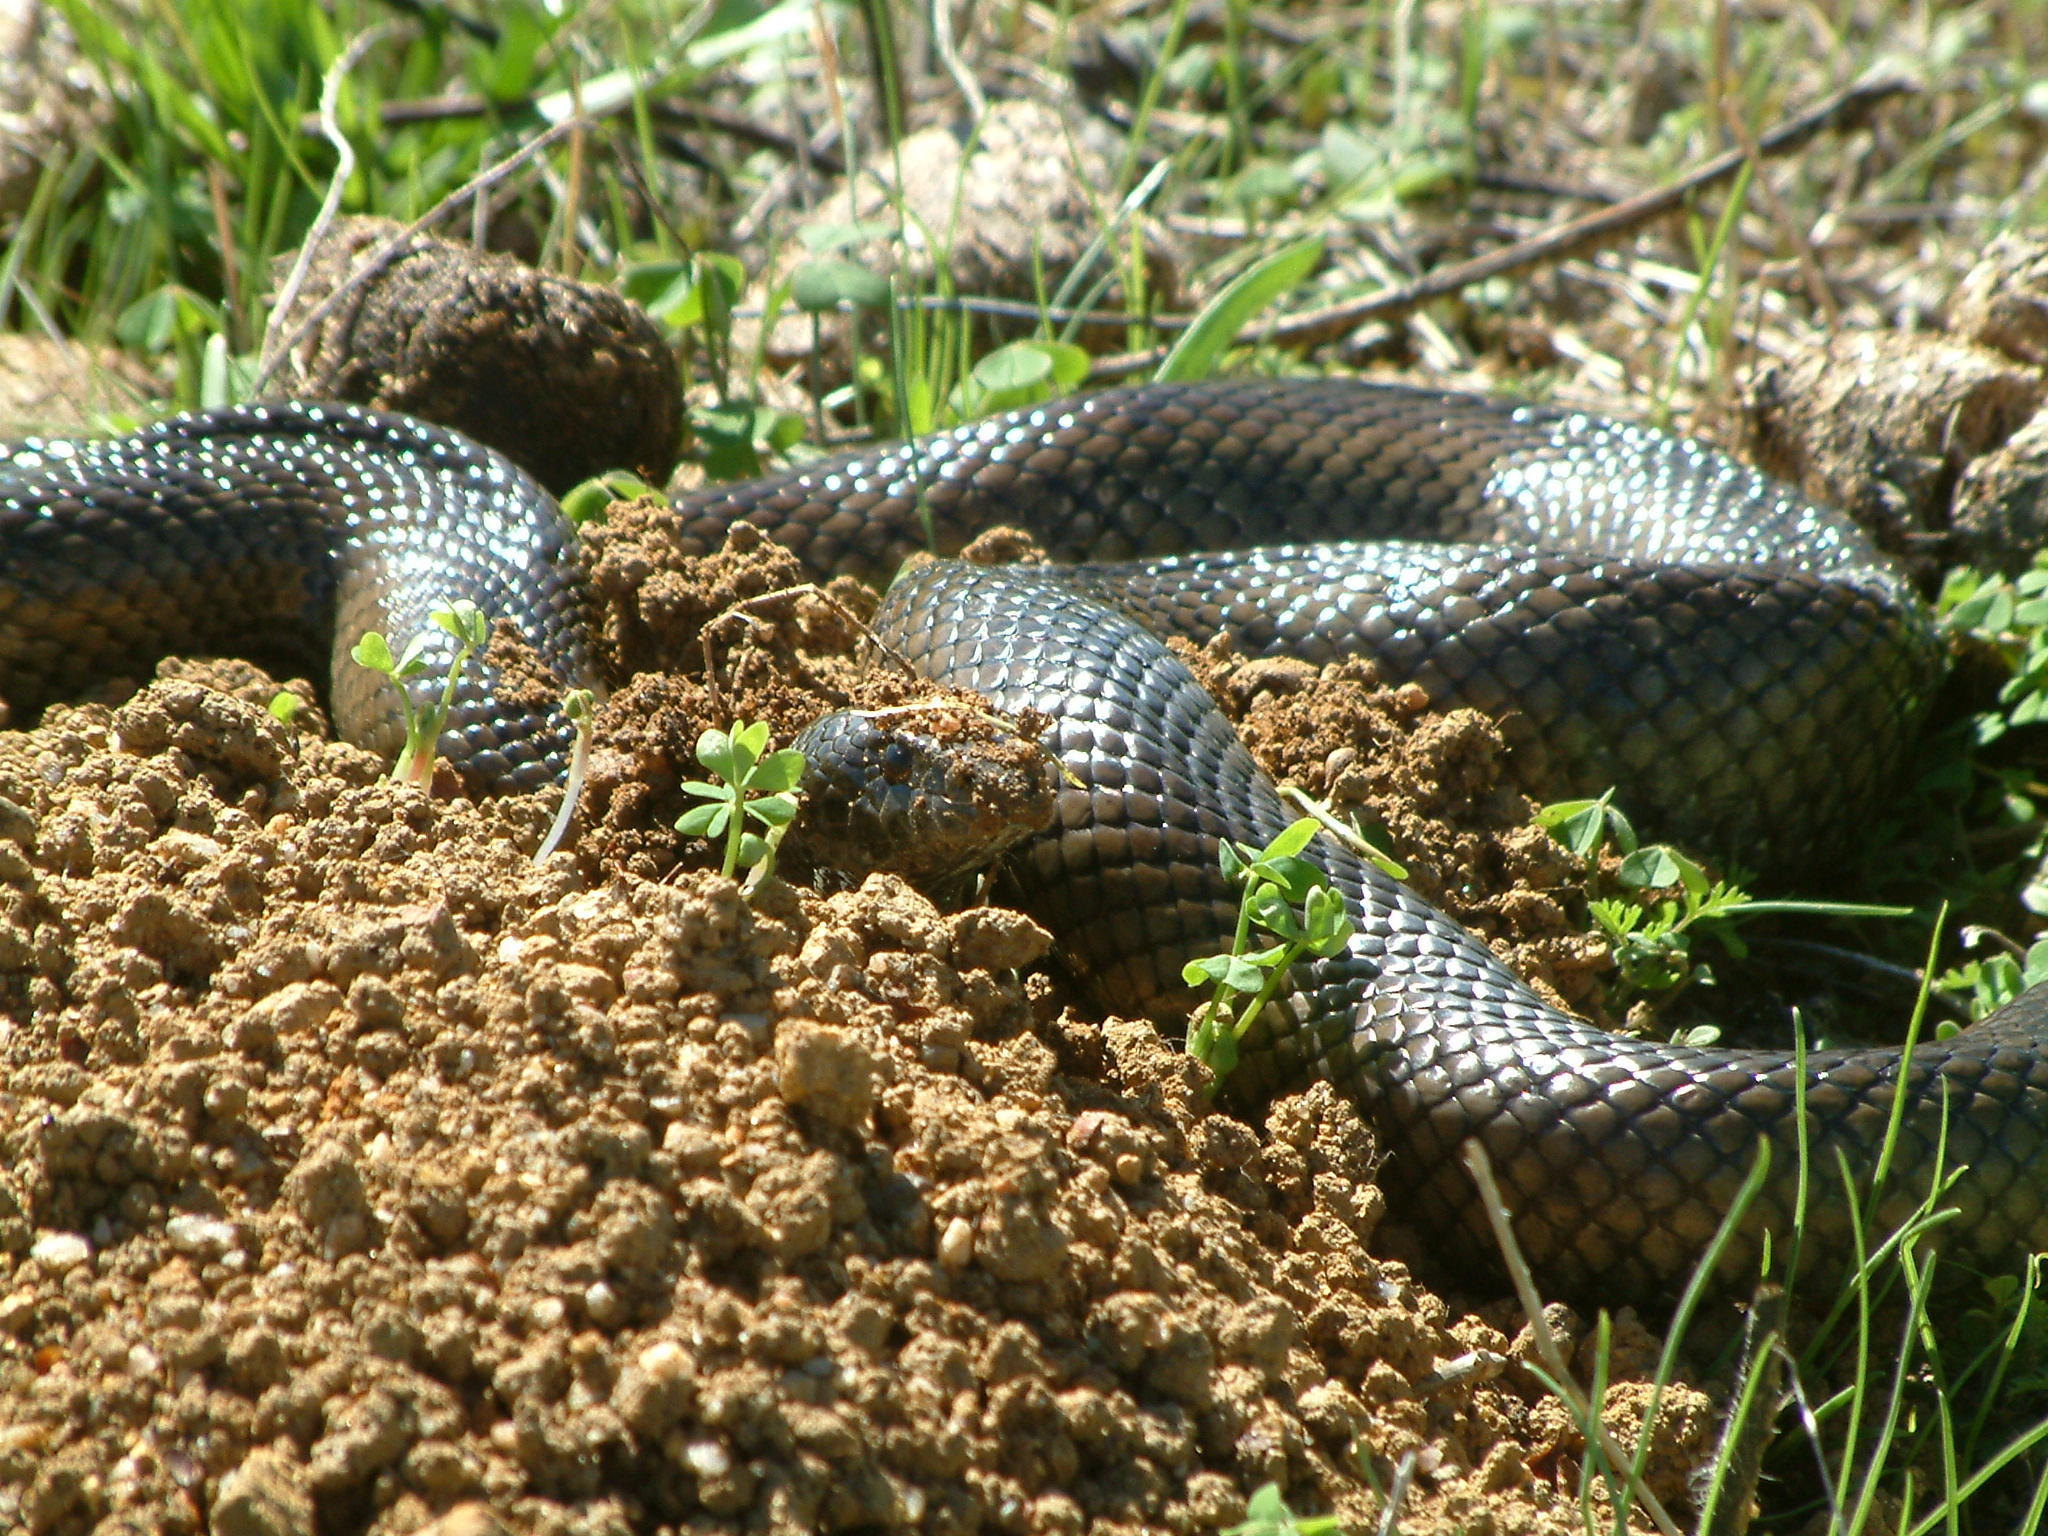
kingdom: Animalia
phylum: Chordata
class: Squamata
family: Pseudaspididae
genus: Pseudaspis
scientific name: Pseudaspis cana
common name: Mole snake
